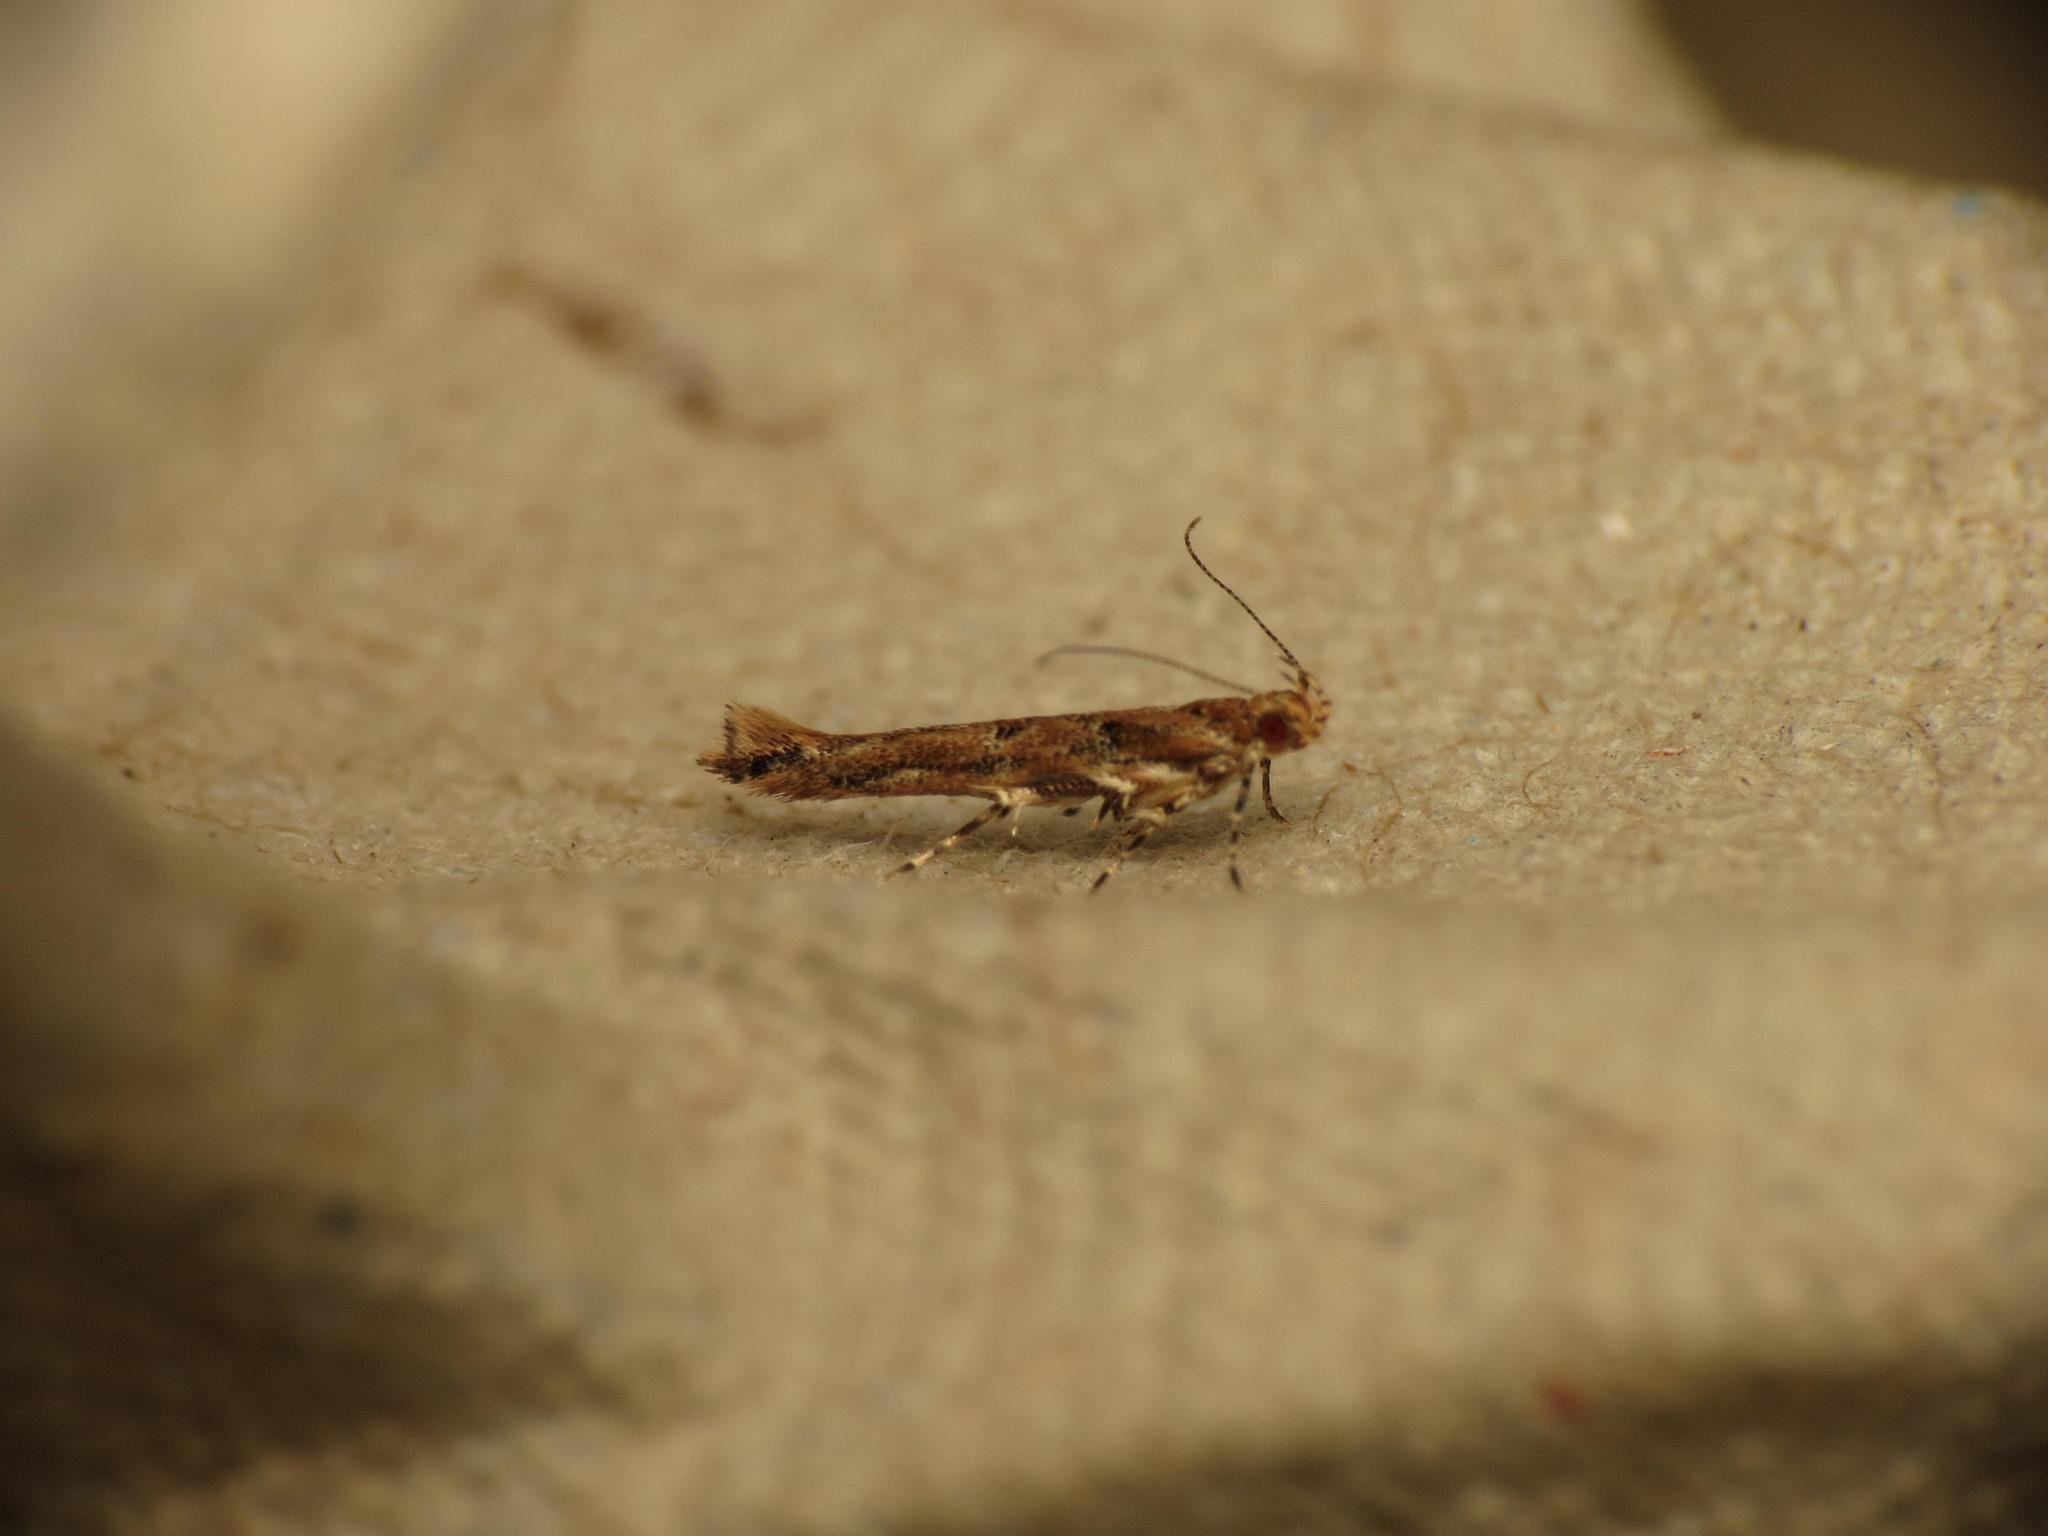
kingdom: Animalia
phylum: Arthropoda
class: Insecta
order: Lepidoptera
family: Cosmopterigidae
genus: Anatrachyntis
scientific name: Anatrachyntis badia
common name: Moth
